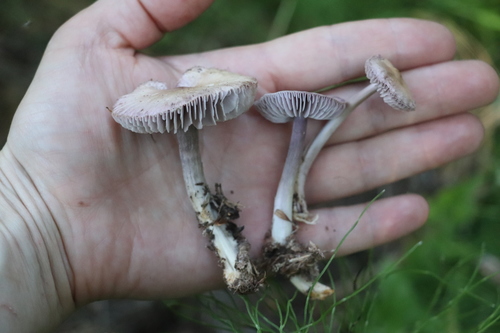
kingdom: Fungi
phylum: Basidiomycota
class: Agaricomycetes
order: Agaricales
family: Mycenaceae
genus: Mycena
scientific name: Mycena pura
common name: Lilac bonnet
